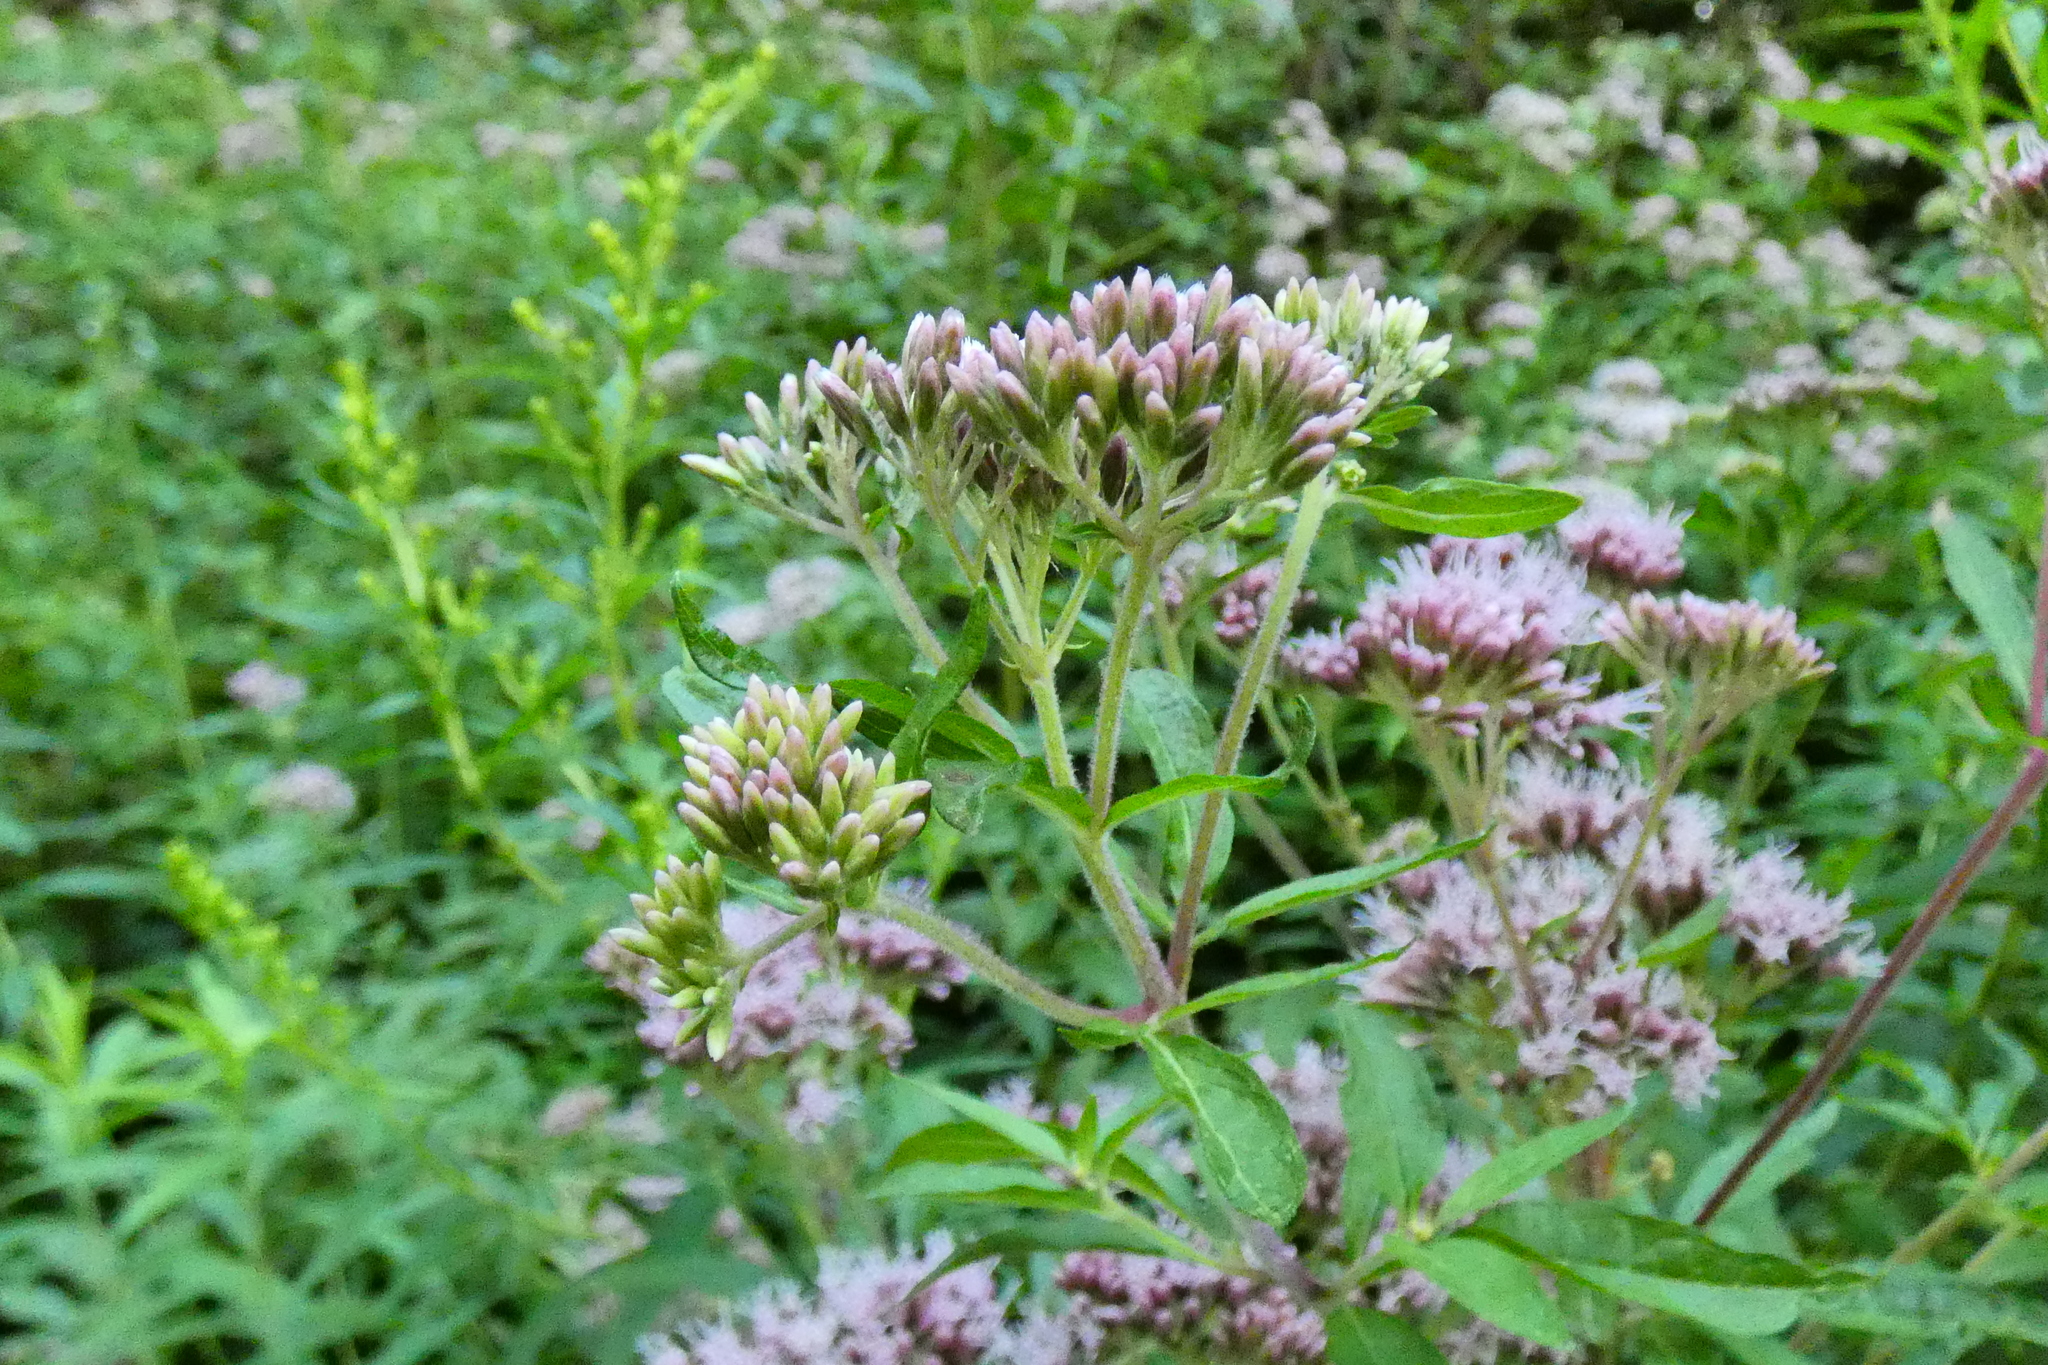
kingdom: Plantae
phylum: Tracheophyta
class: Magnoliopsida
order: Asterales
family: Asteraceae
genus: Eupatorium
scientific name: Eupatorium cannabinum
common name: Hemp-agrimony
